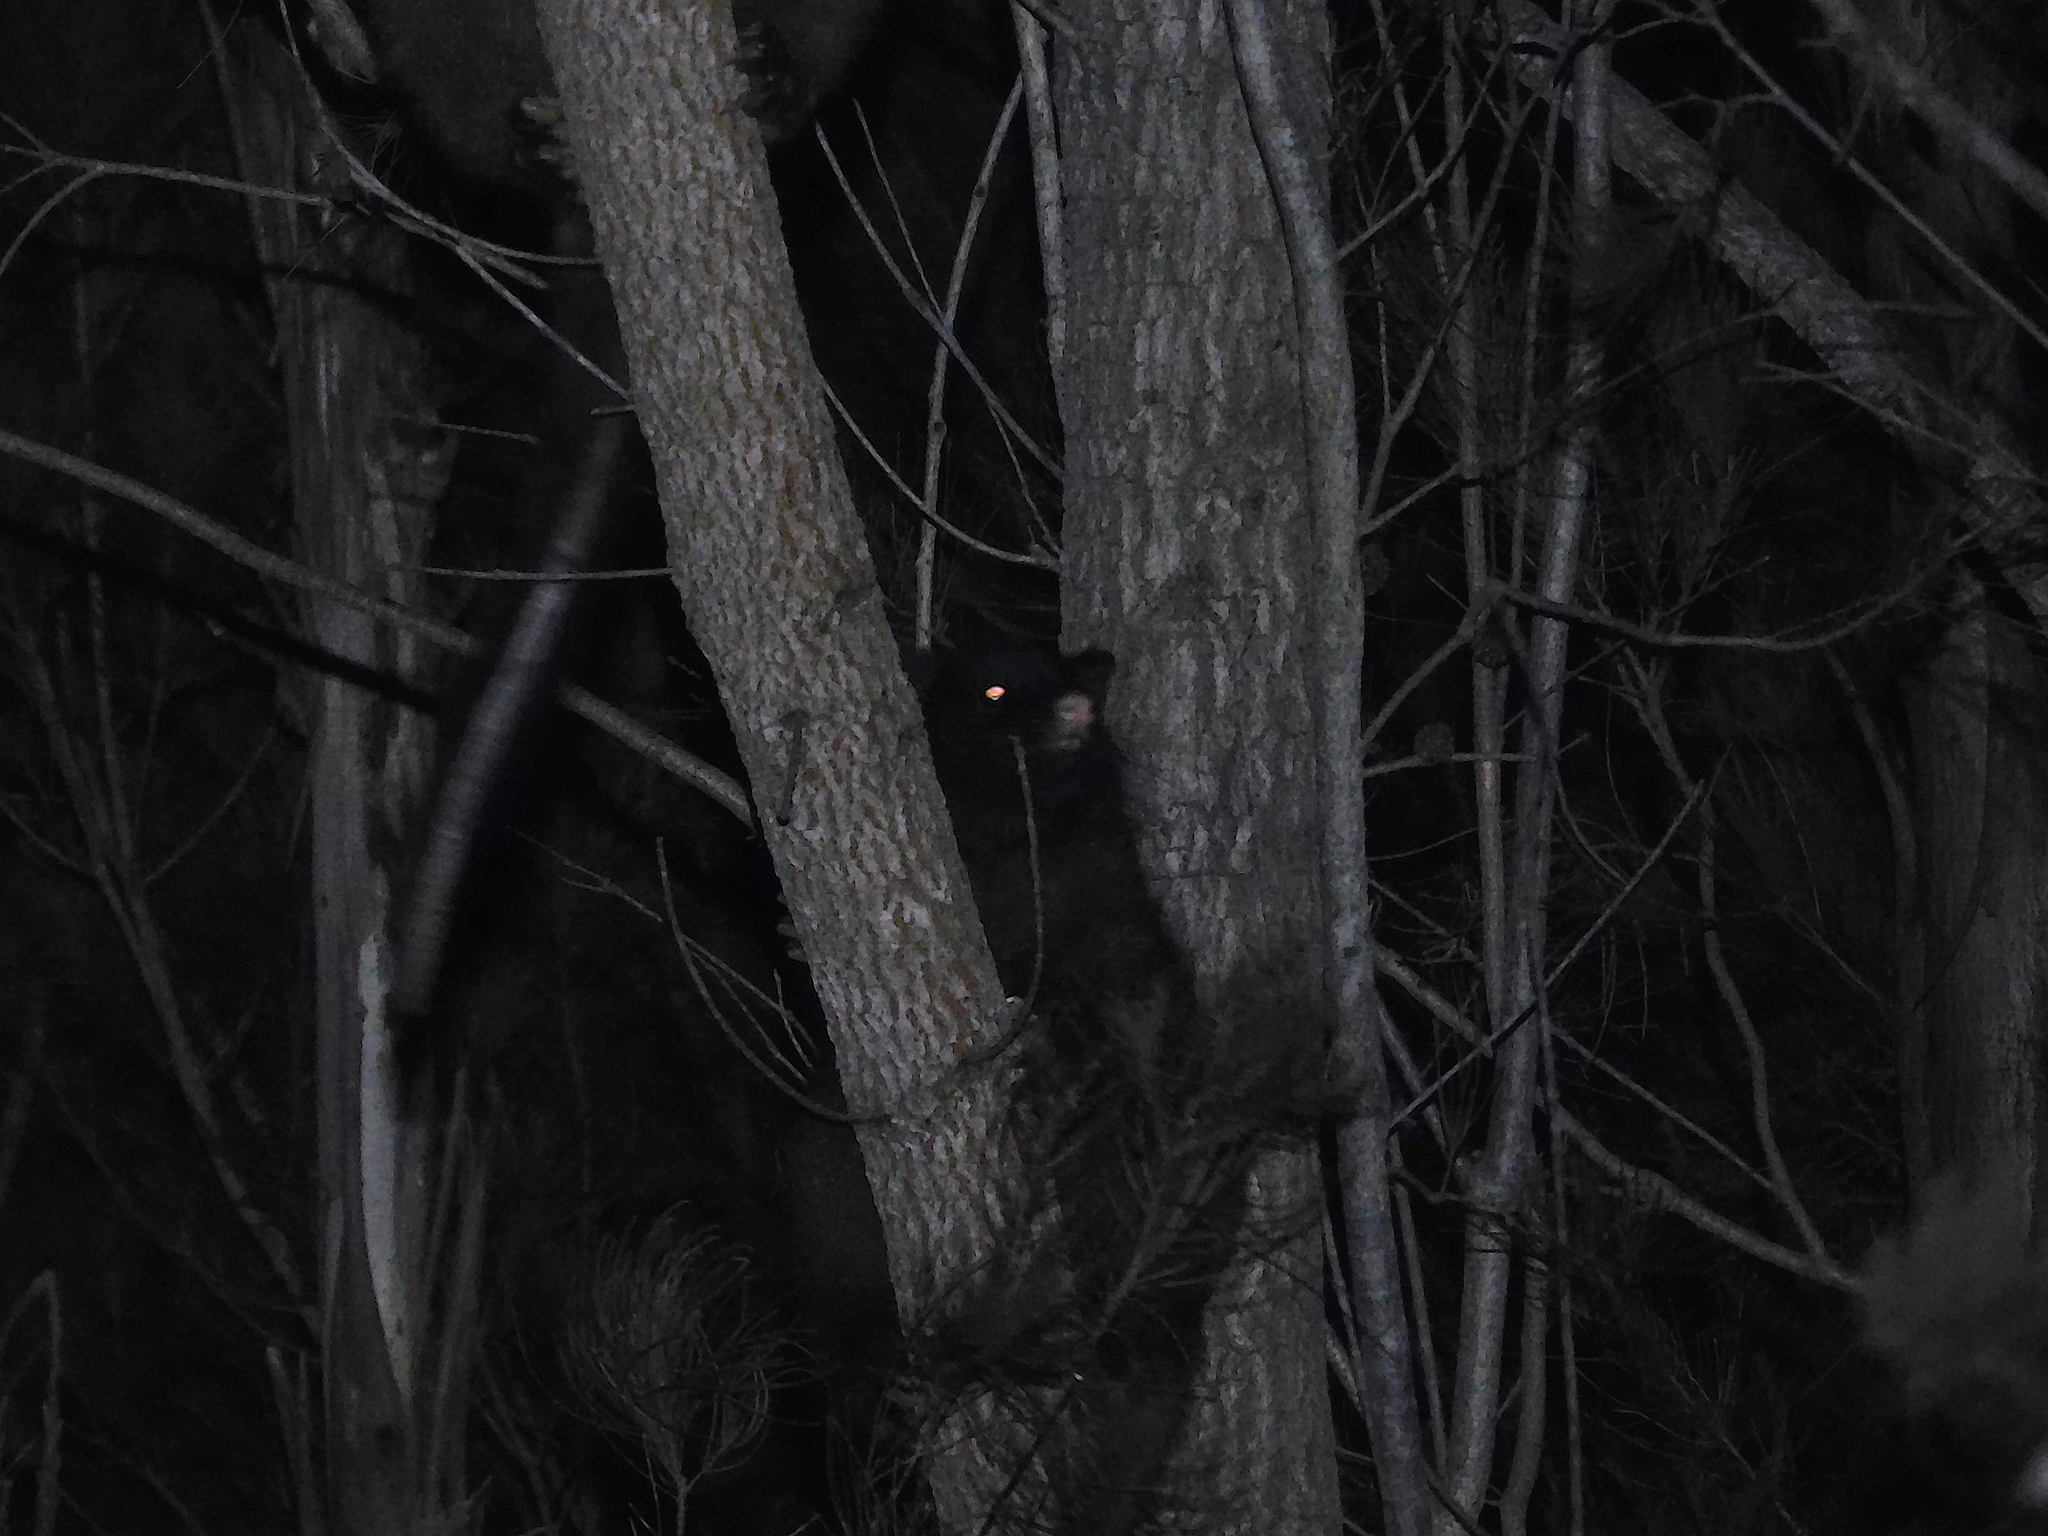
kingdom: Animalia
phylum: Chordata
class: Mammalia
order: Diprotodontia
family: Phalangeridae
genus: Trichosurus
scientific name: Trichosurus vulpecula
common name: Common brushtail
